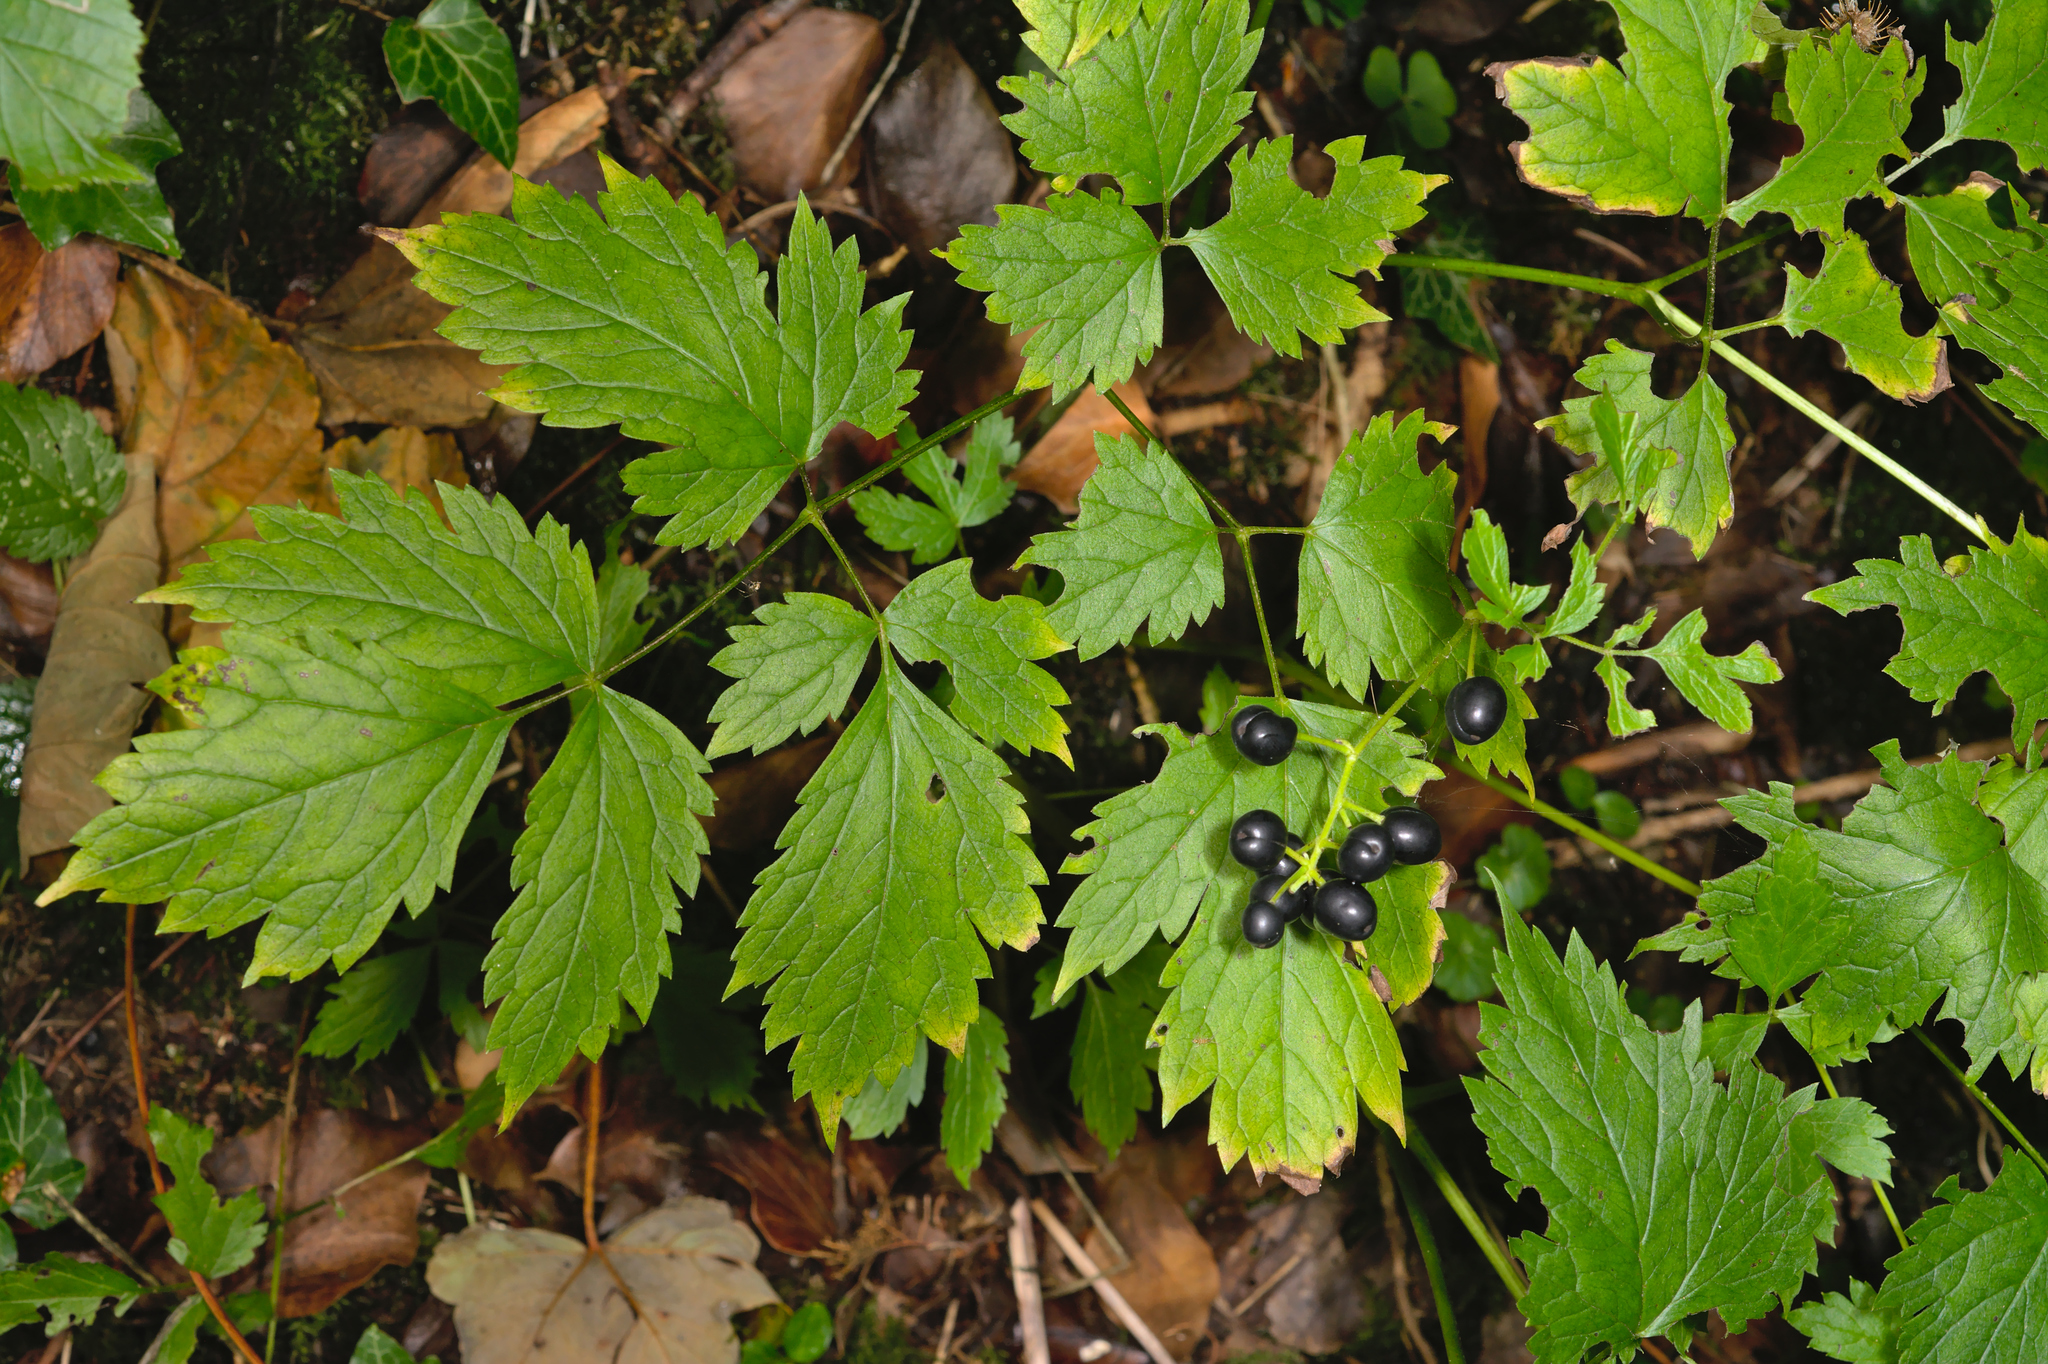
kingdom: Plantae
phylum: Tracheophyta
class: Magnoliopsida
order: Ranunculales
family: Ranunculaceae
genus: Actaea
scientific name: Actaea spicata
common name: Baneberry
